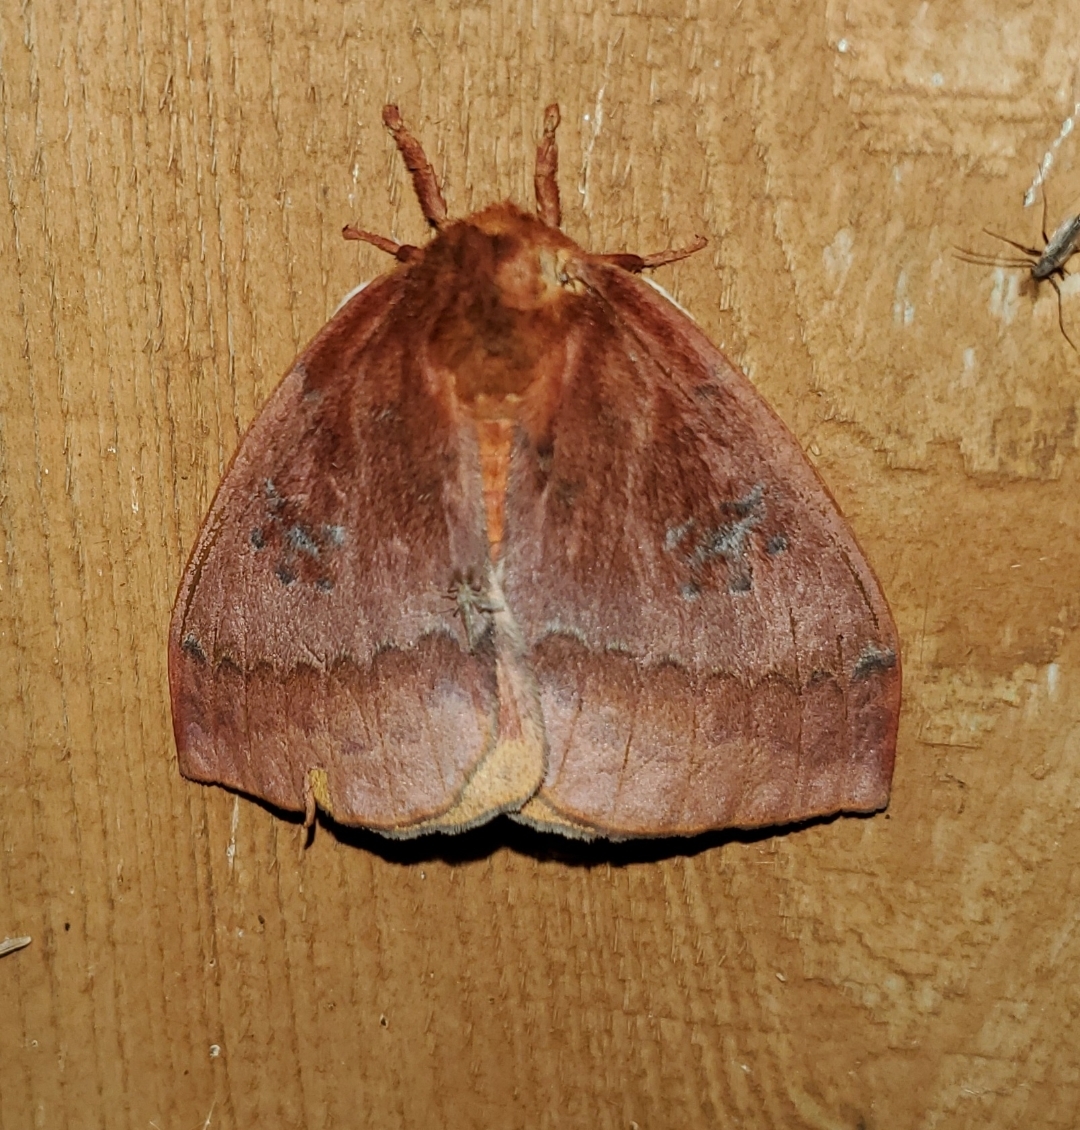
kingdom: Animalia
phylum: Arthropoda
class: Insecta
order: Lepidoptera
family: Saturniidae
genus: Automeris
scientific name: Automeris io
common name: Io moth
